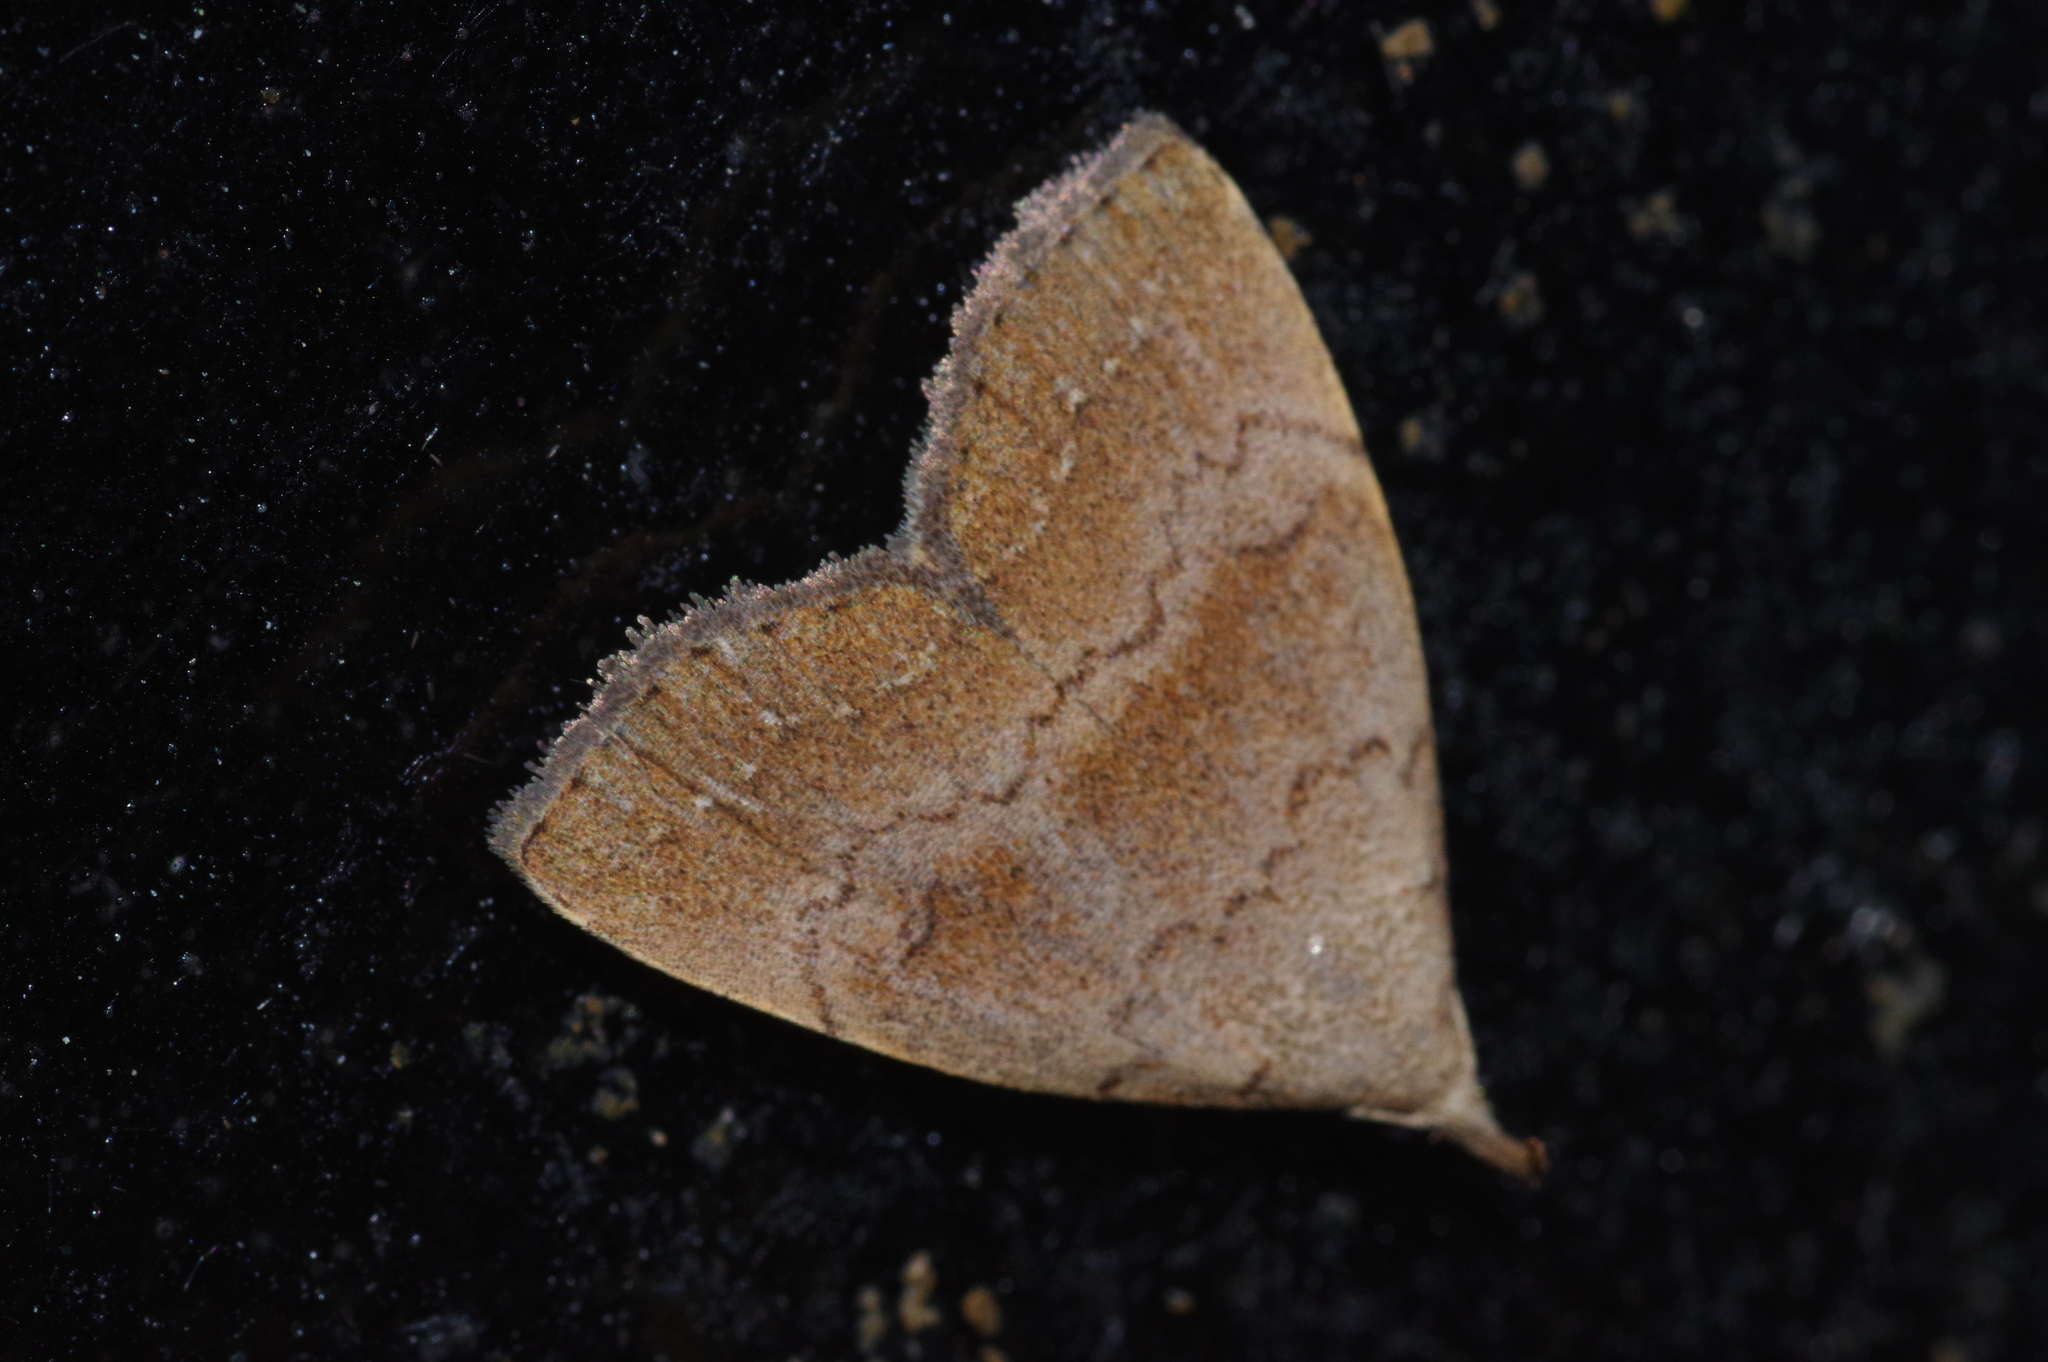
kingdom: Animalia
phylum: Arthropoda
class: Insecta
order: Lepidoptera
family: Erebidae
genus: Polypogon
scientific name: Polypogon
